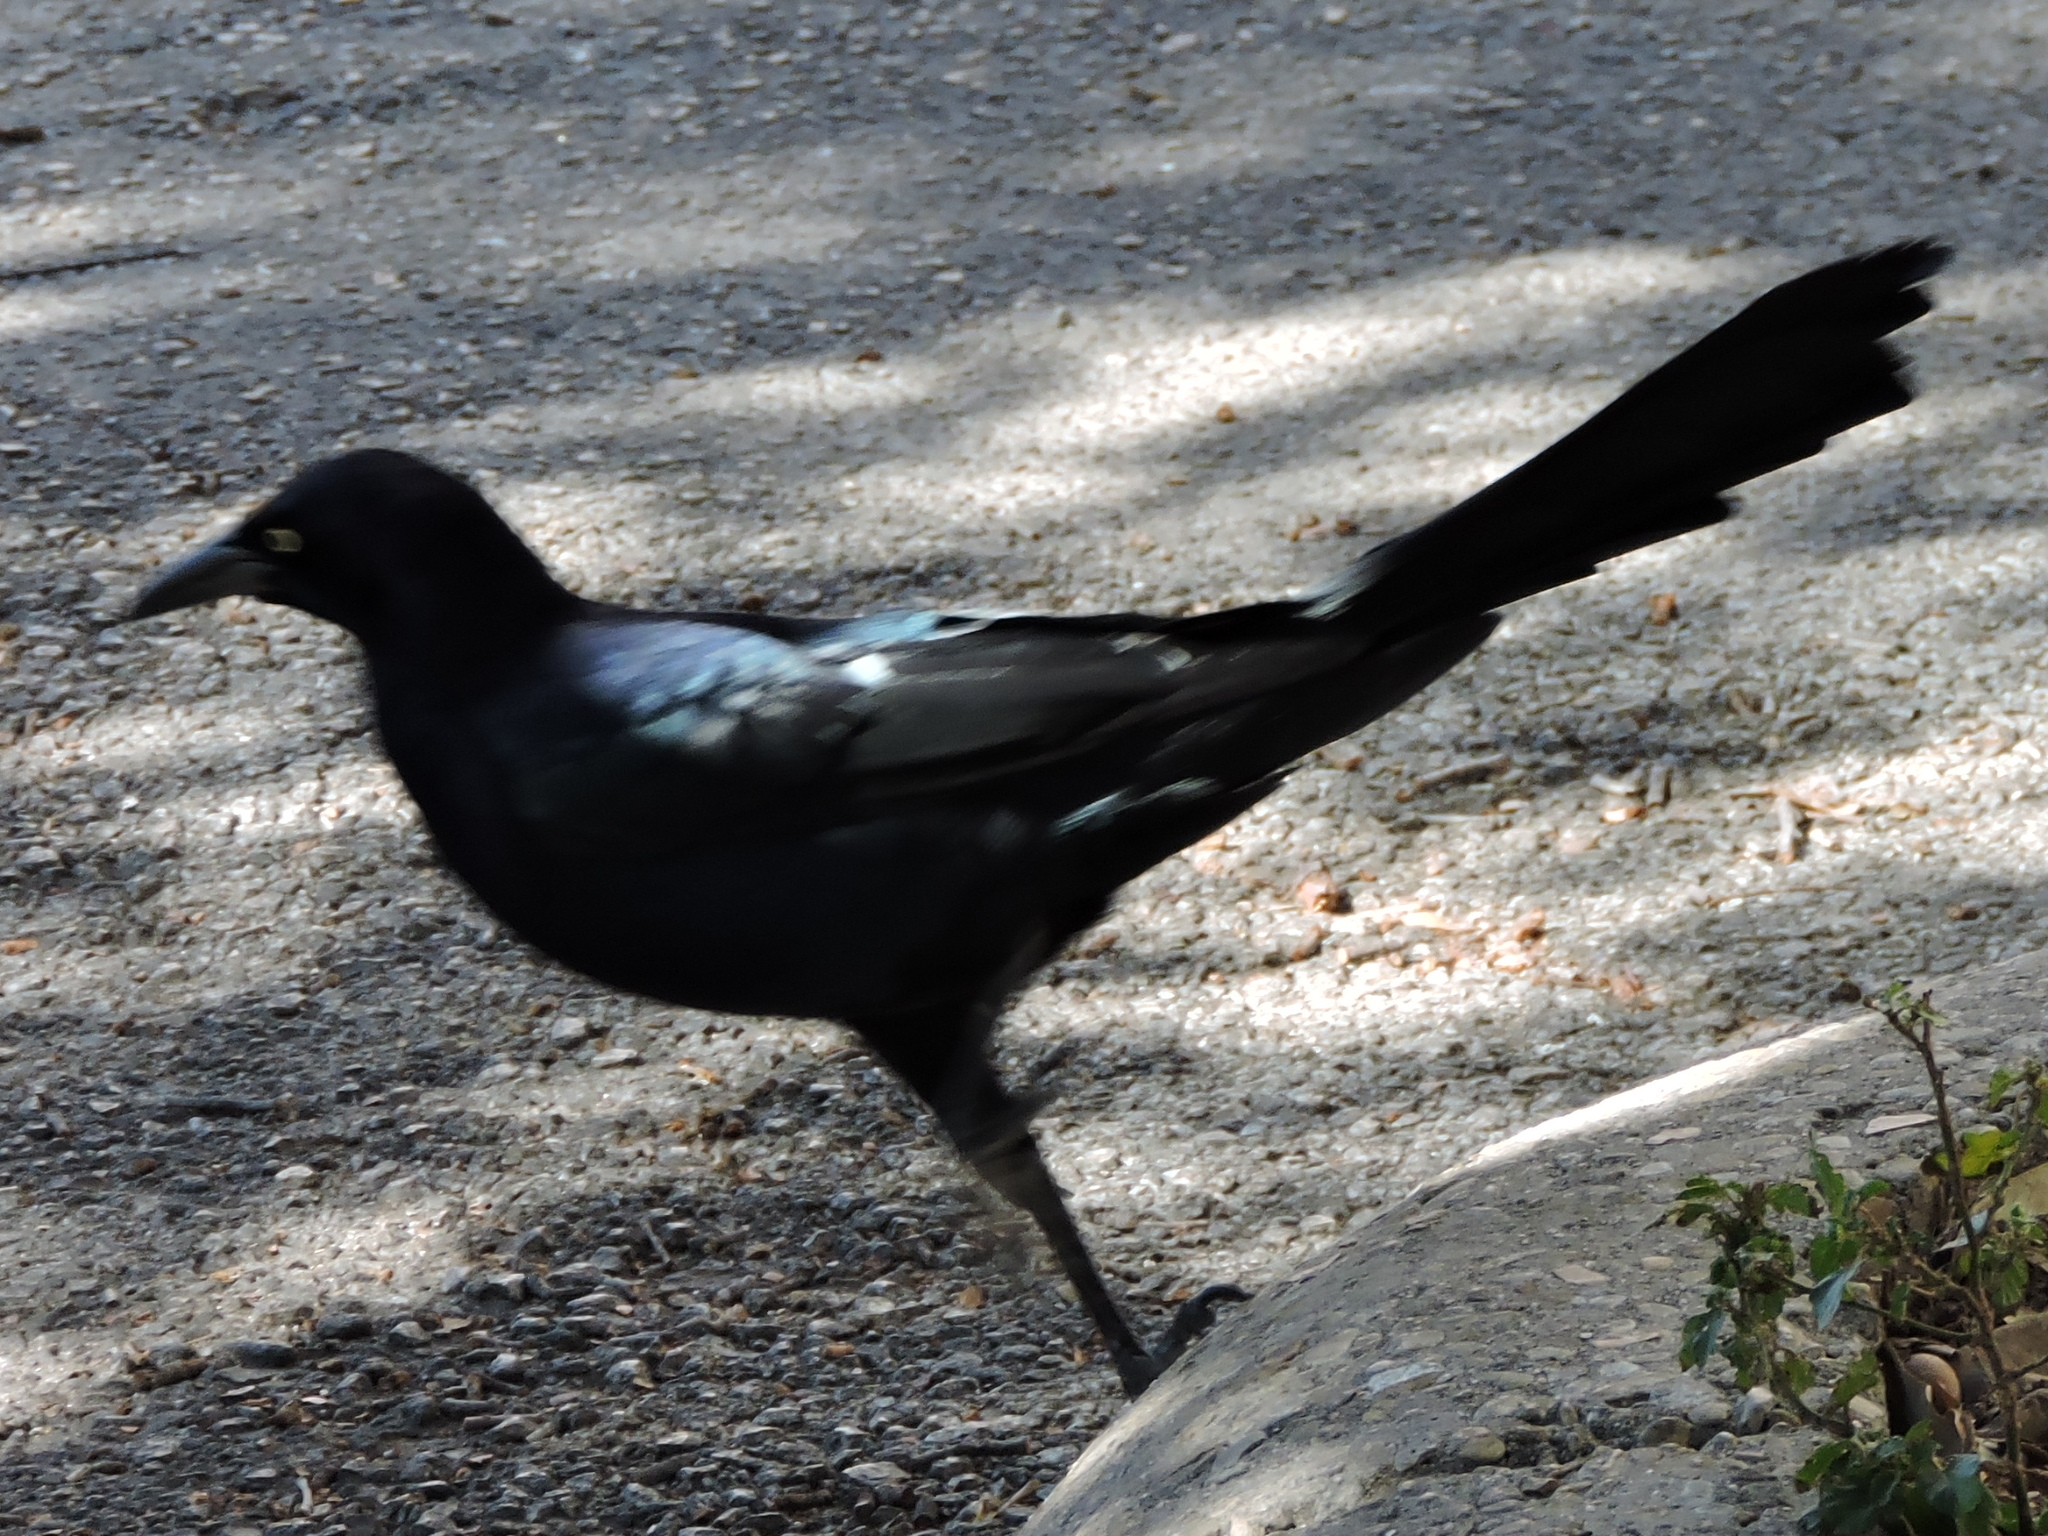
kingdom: Animalia
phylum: Chordata
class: Aves
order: Passeriformes
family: Icteridae
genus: Quiscalus
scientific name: Quiscalus mexicanus
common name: Great-tailed grackle
